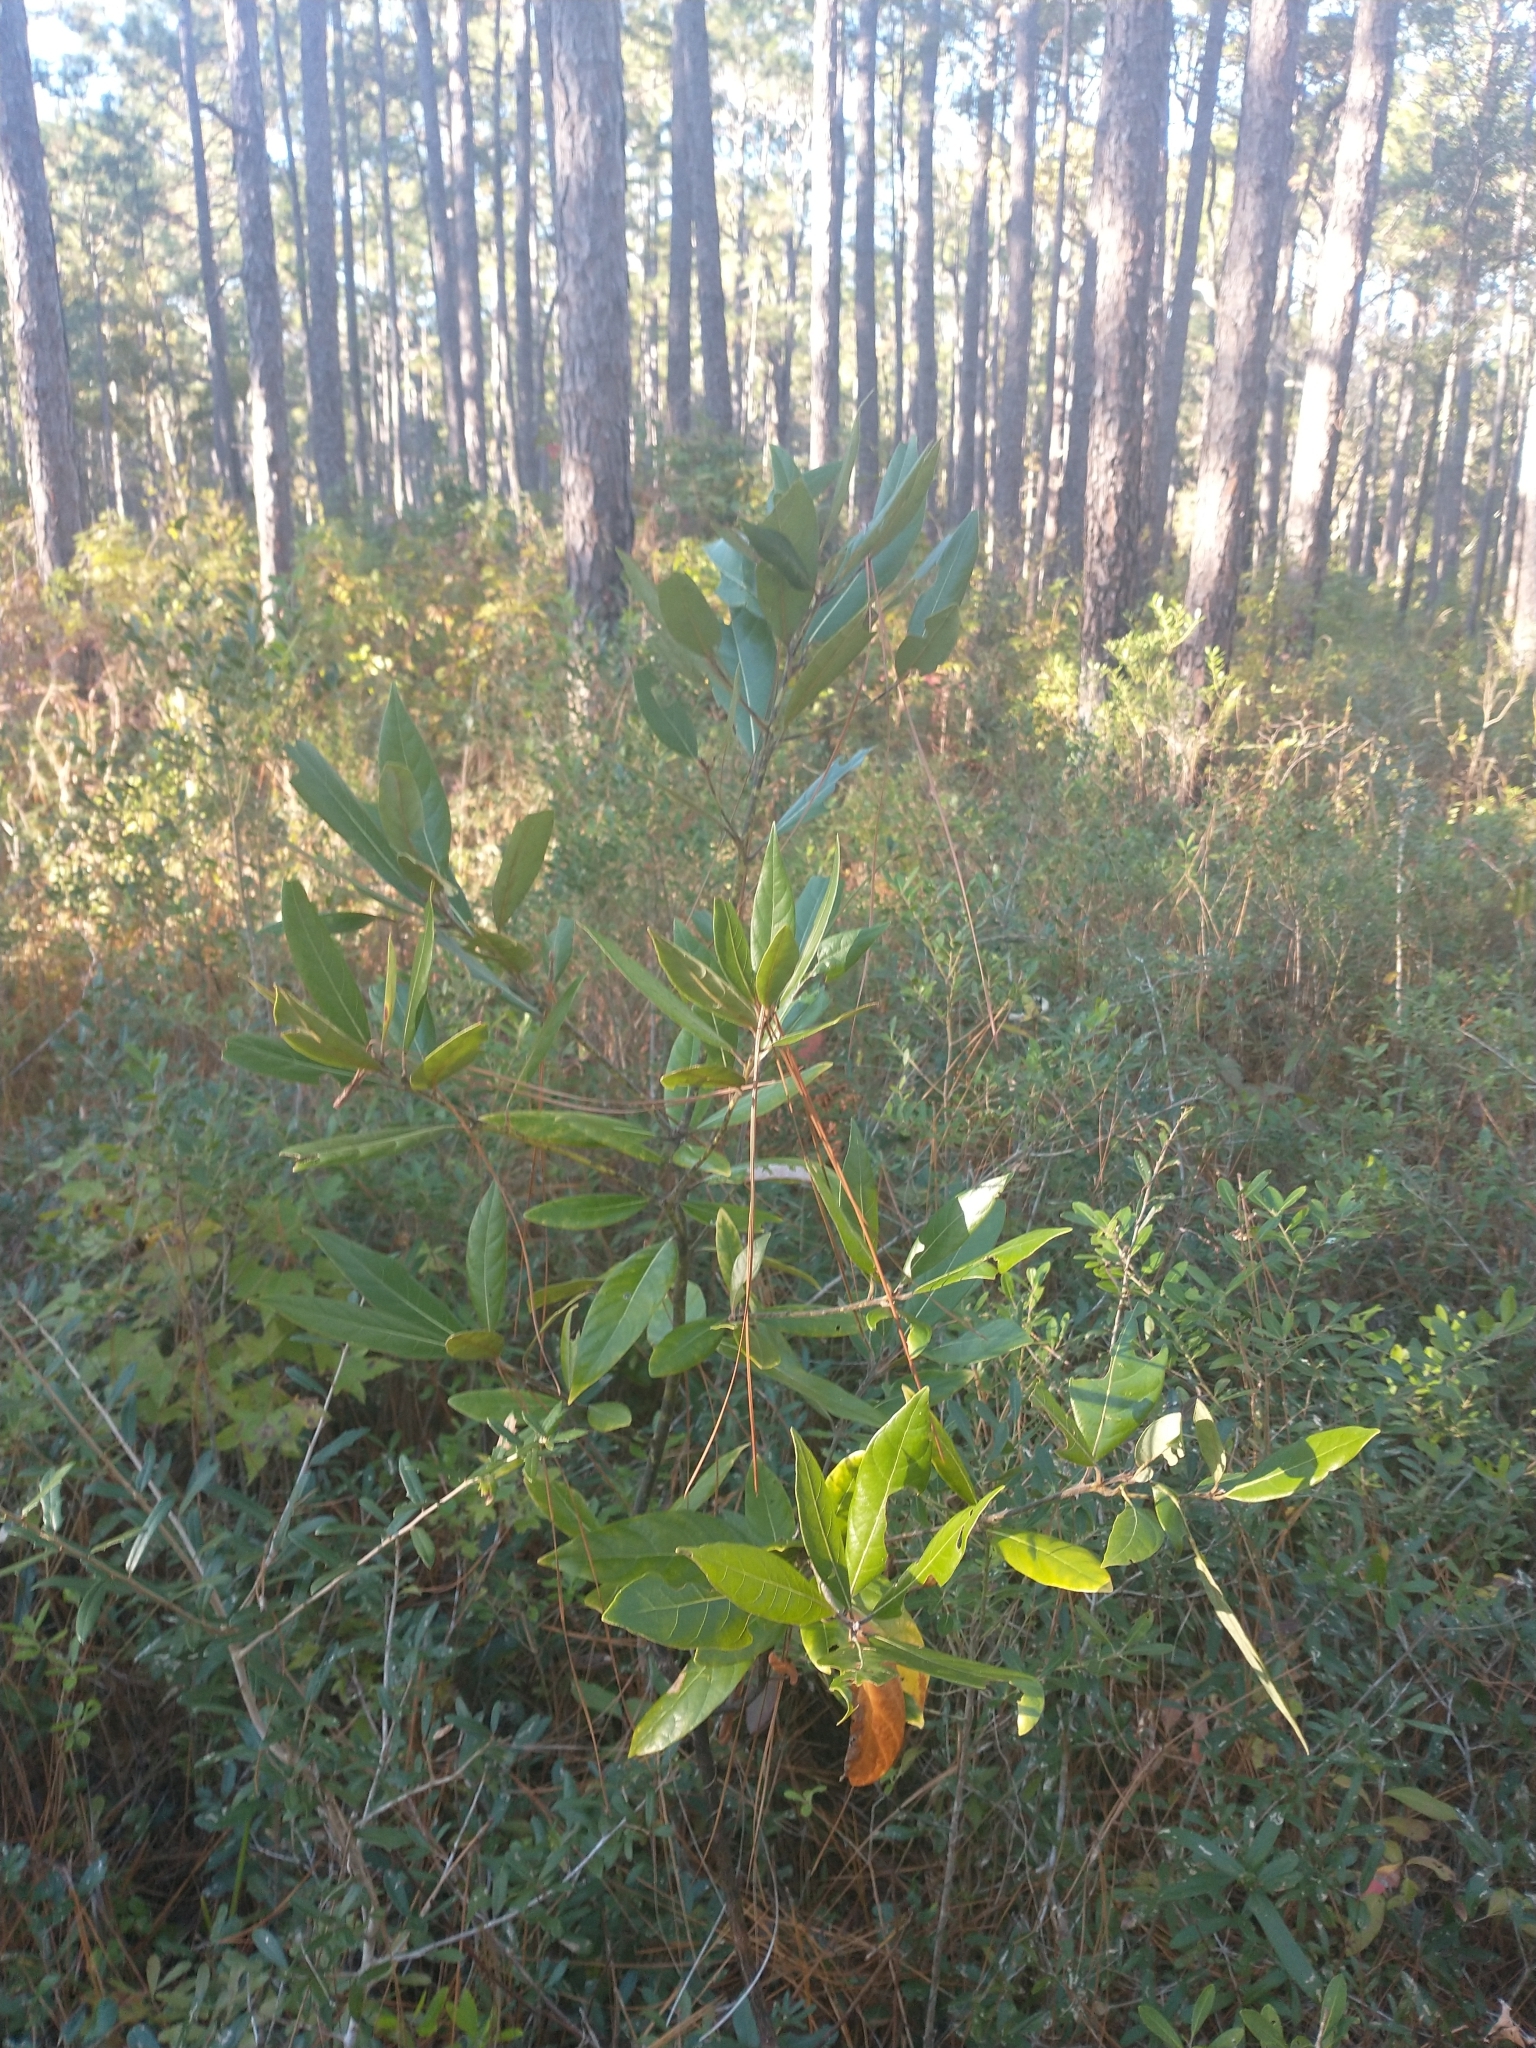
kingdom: Plantae
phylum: Tracheophyta
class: Magnoliopsida
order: Magnoliales
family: Magnoliaceae
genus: Magnolia
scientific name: Magnolia virginiana
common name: Swamp bay
